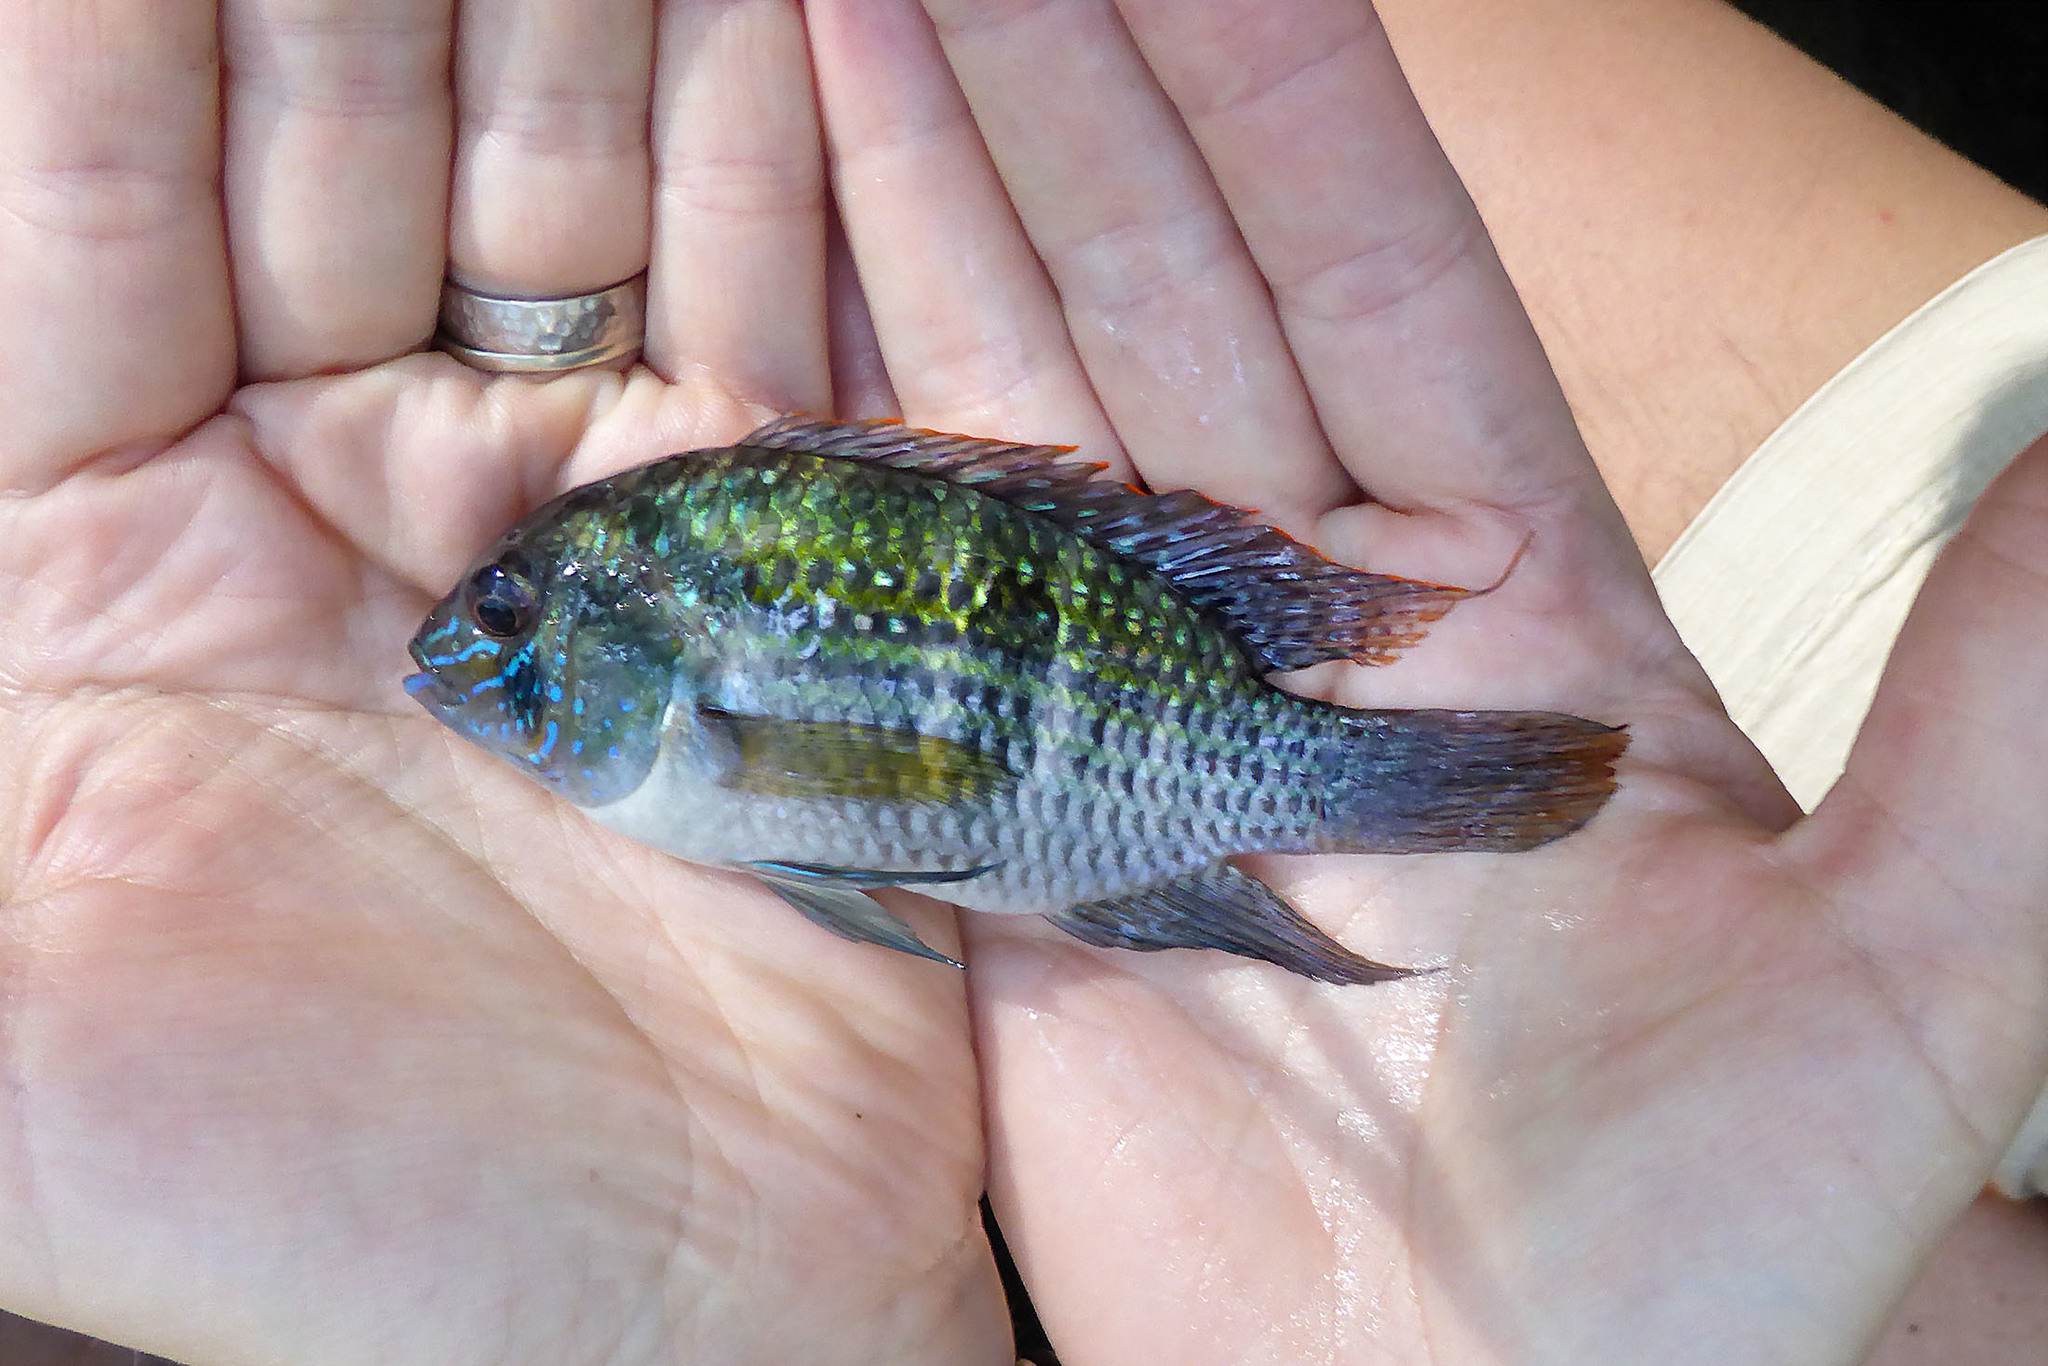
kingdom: Animalia
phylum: Chordata
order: Perciformes
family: Cichlidae
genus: Andinoacara
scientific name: Andinoacara pulcher
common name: Blue acara
